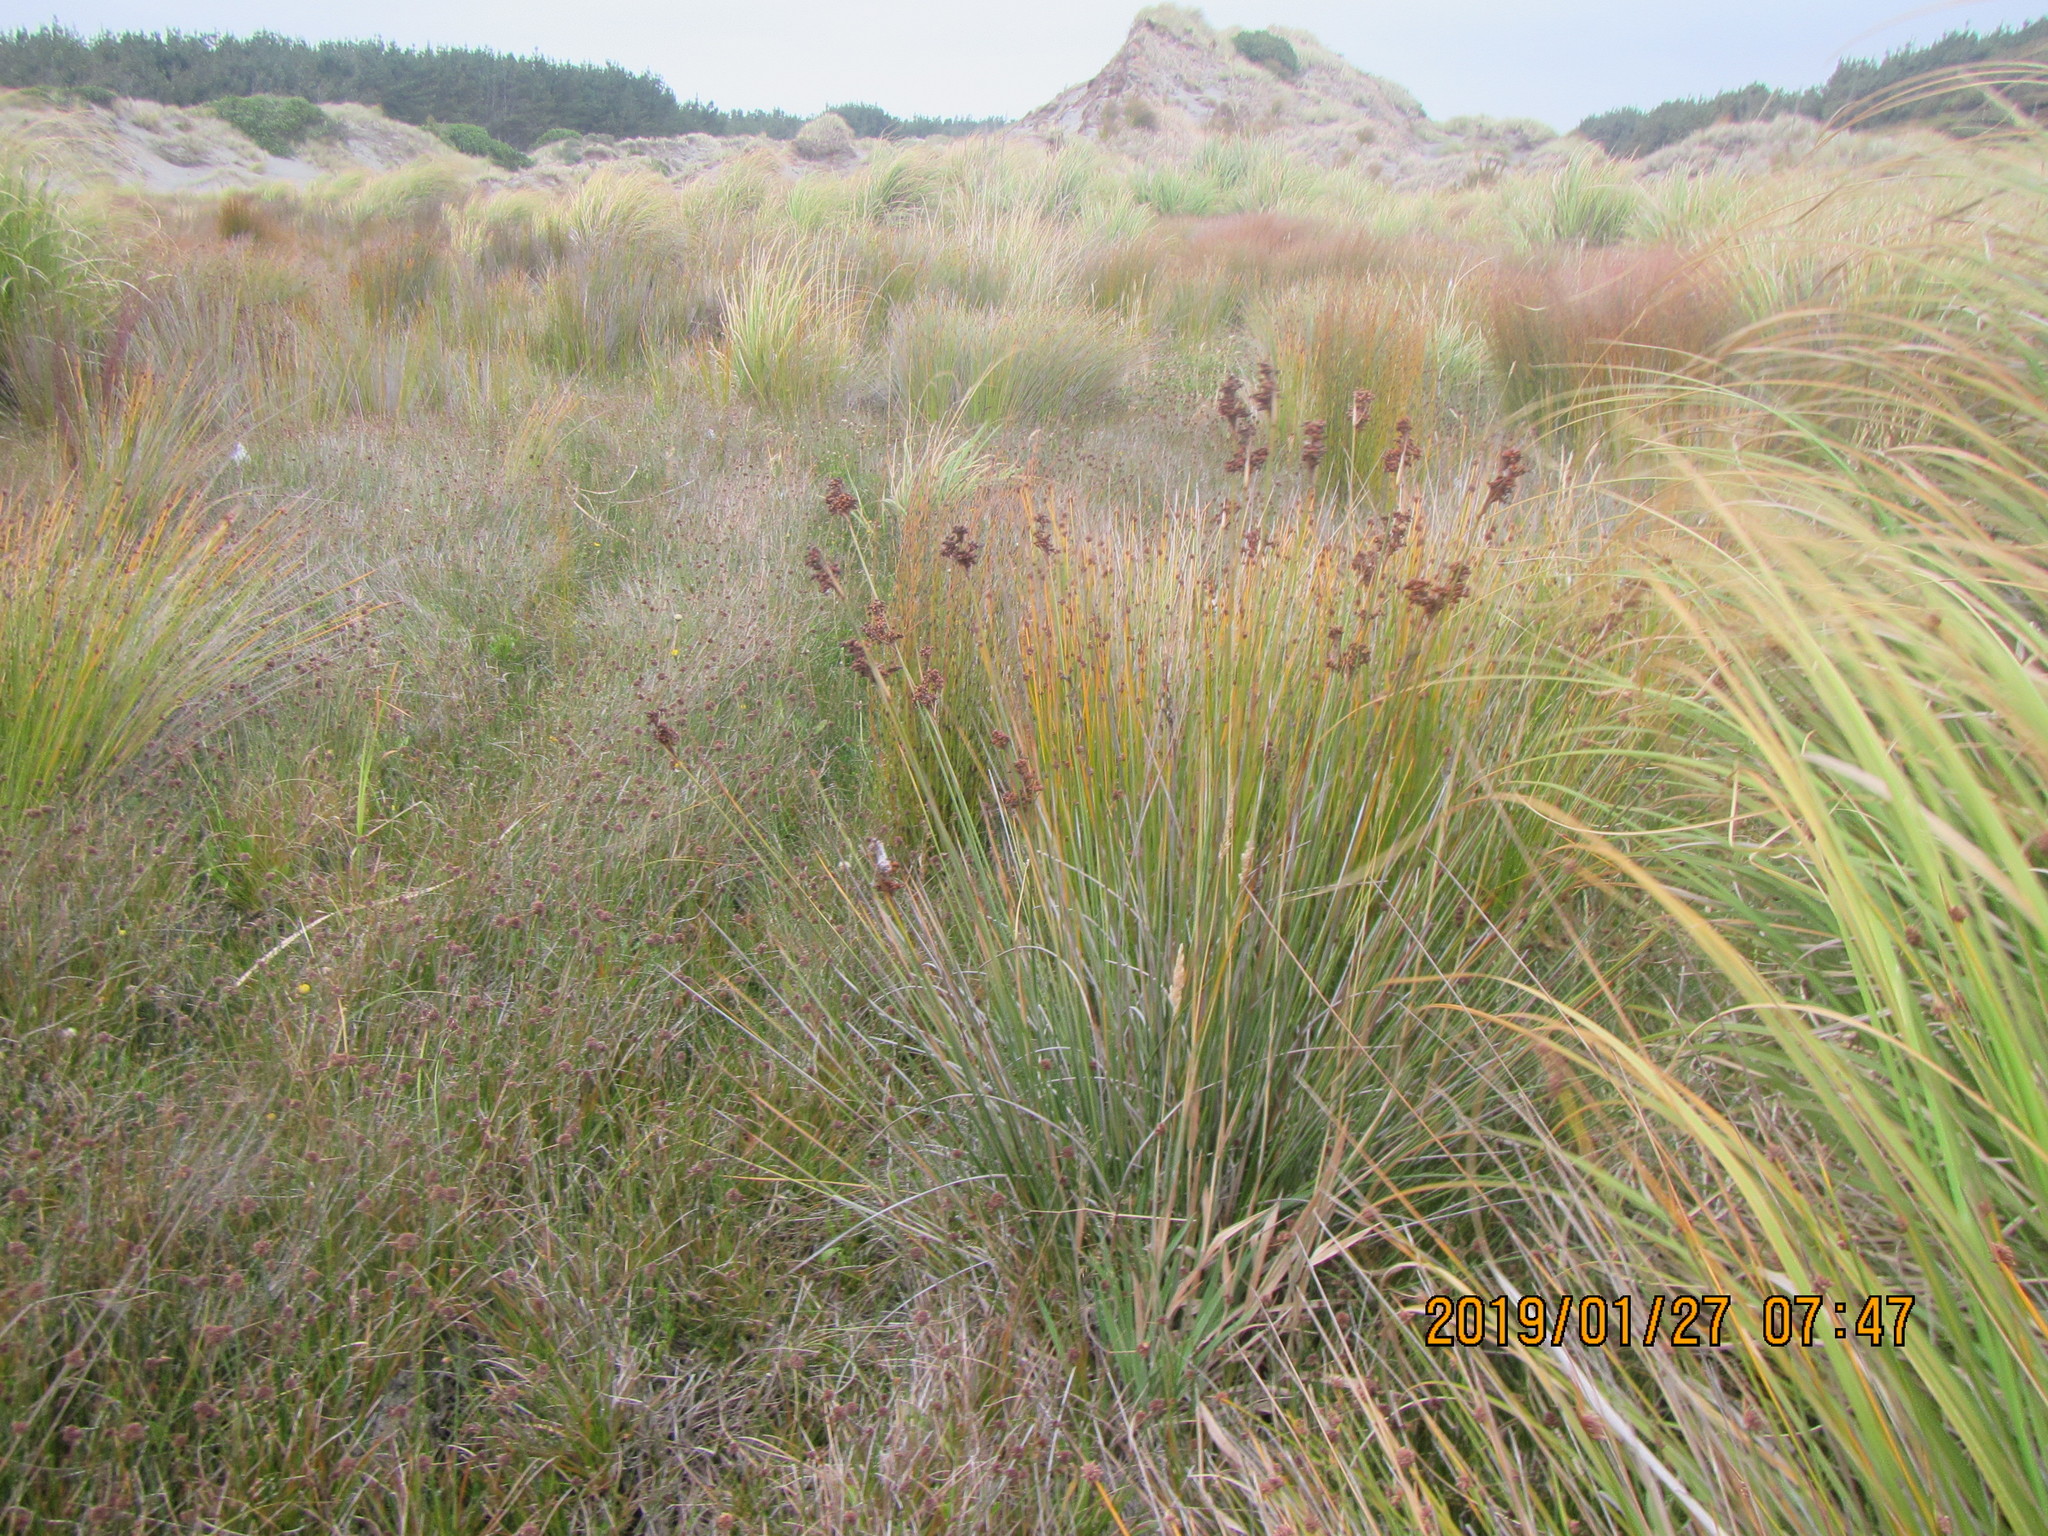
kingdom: Plantae
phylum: Tracheophyta
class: Liliopsida
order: Poales
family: Juncaceae
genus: Juncus
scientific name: Juncus acutus
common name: Sharp rush
